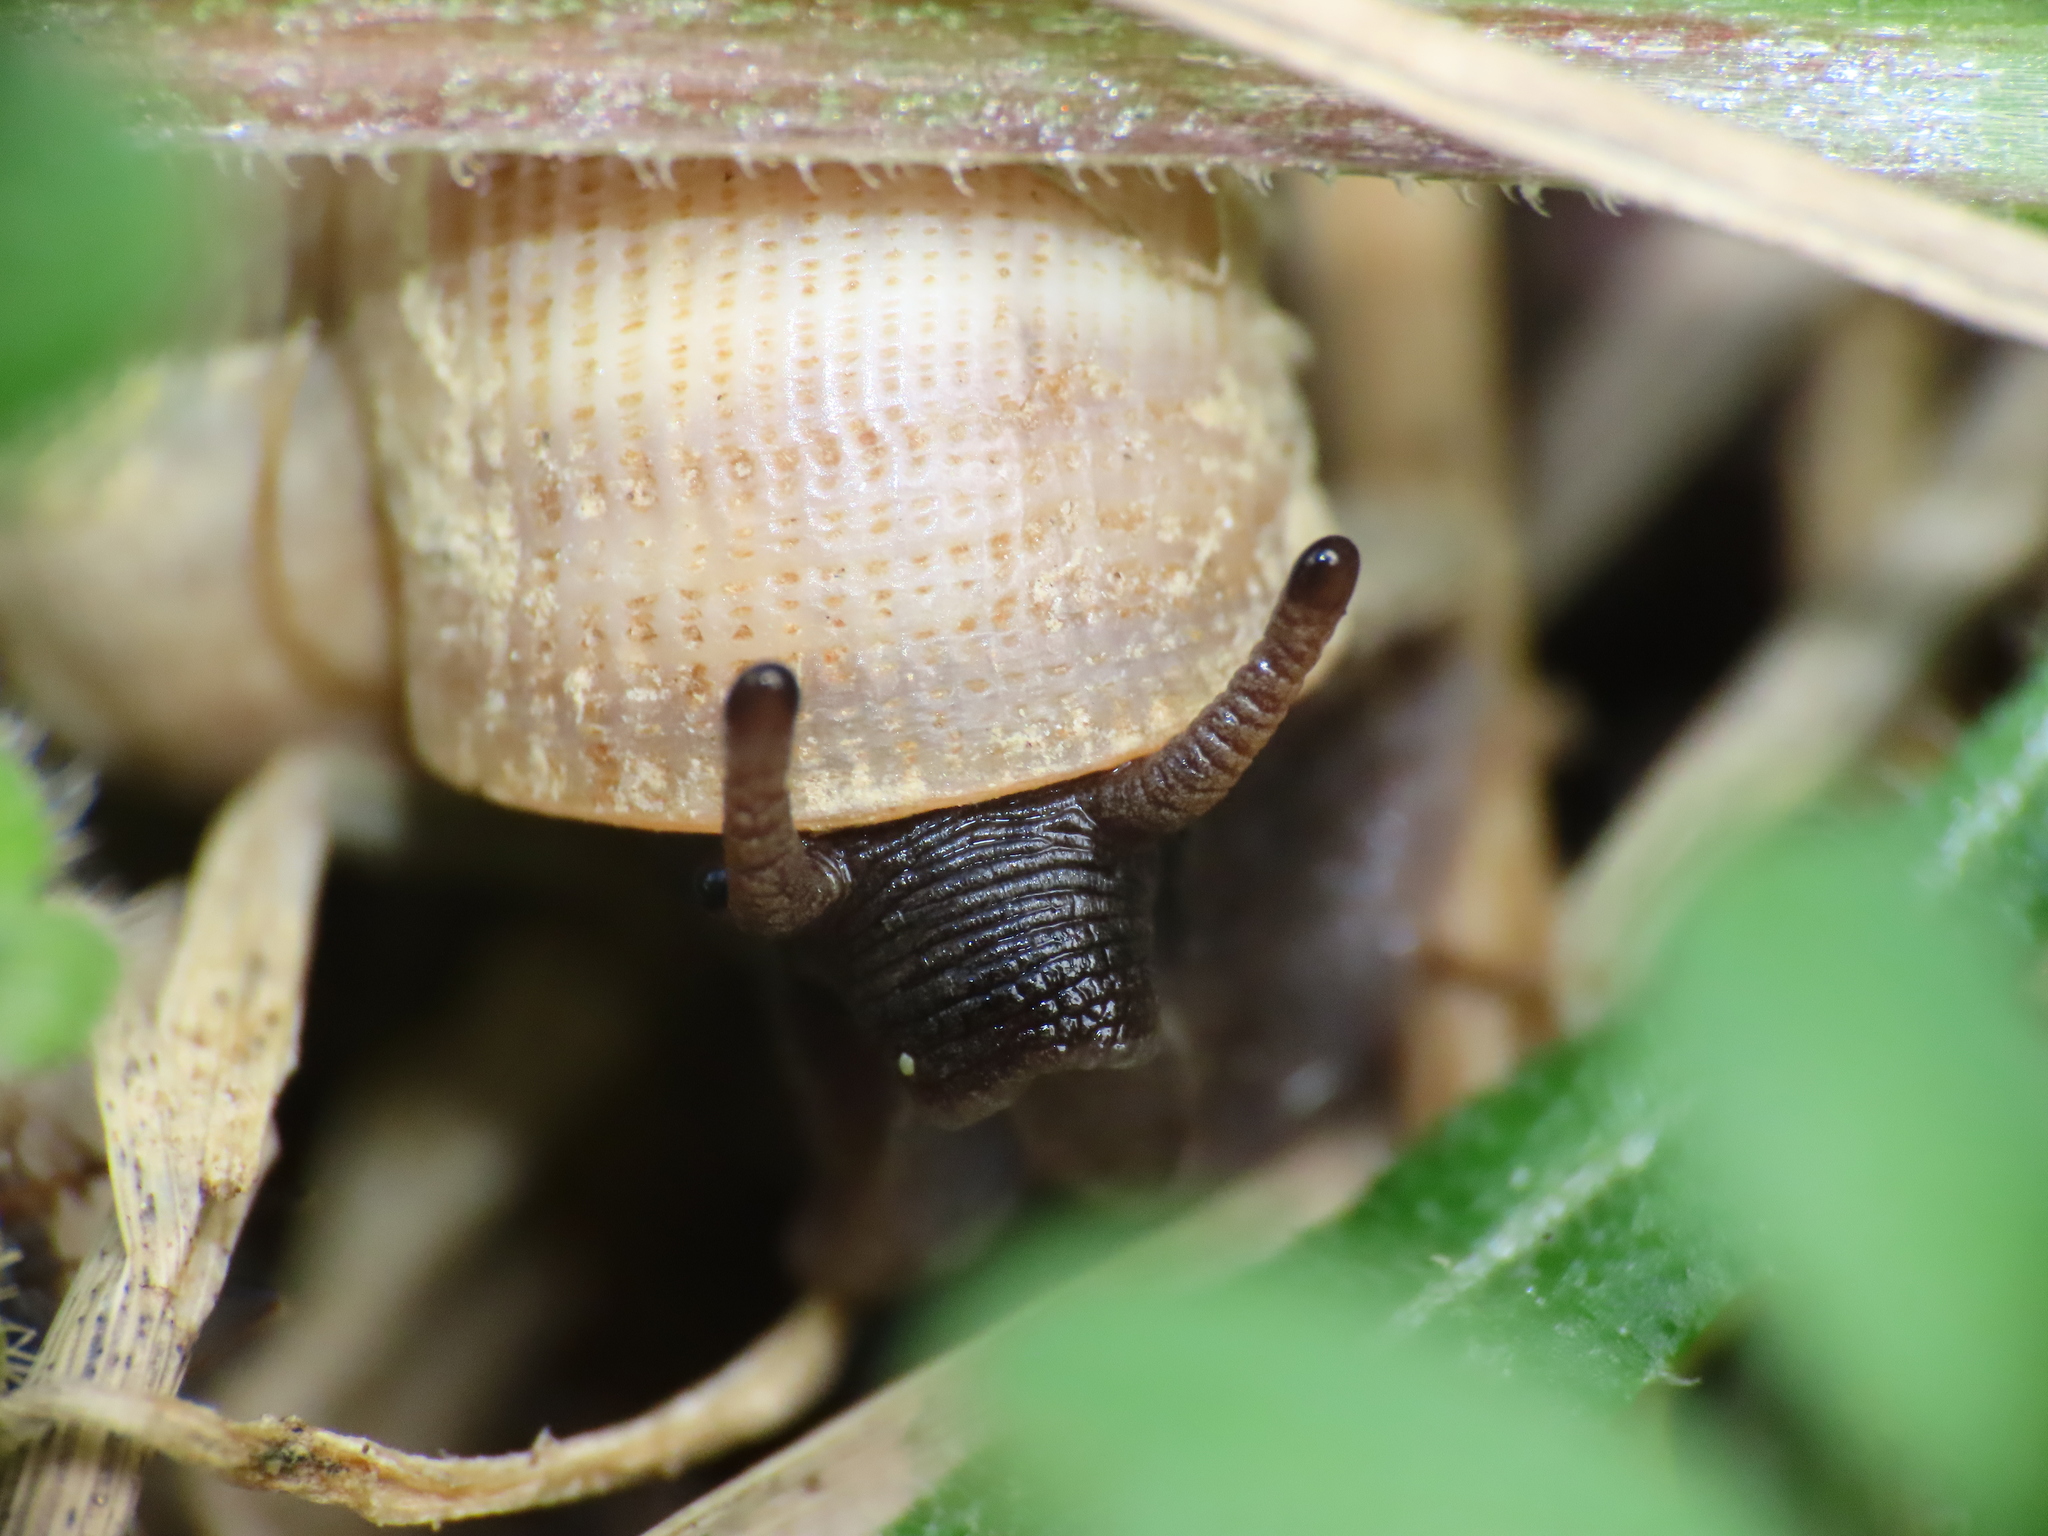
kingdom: Animalia
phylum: Mollusca
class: Gastropoda
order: Littorinimorpha
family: Pomatiidae
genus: Pomatias
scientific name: Pomatias elegans
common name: Red-mouthed snail
